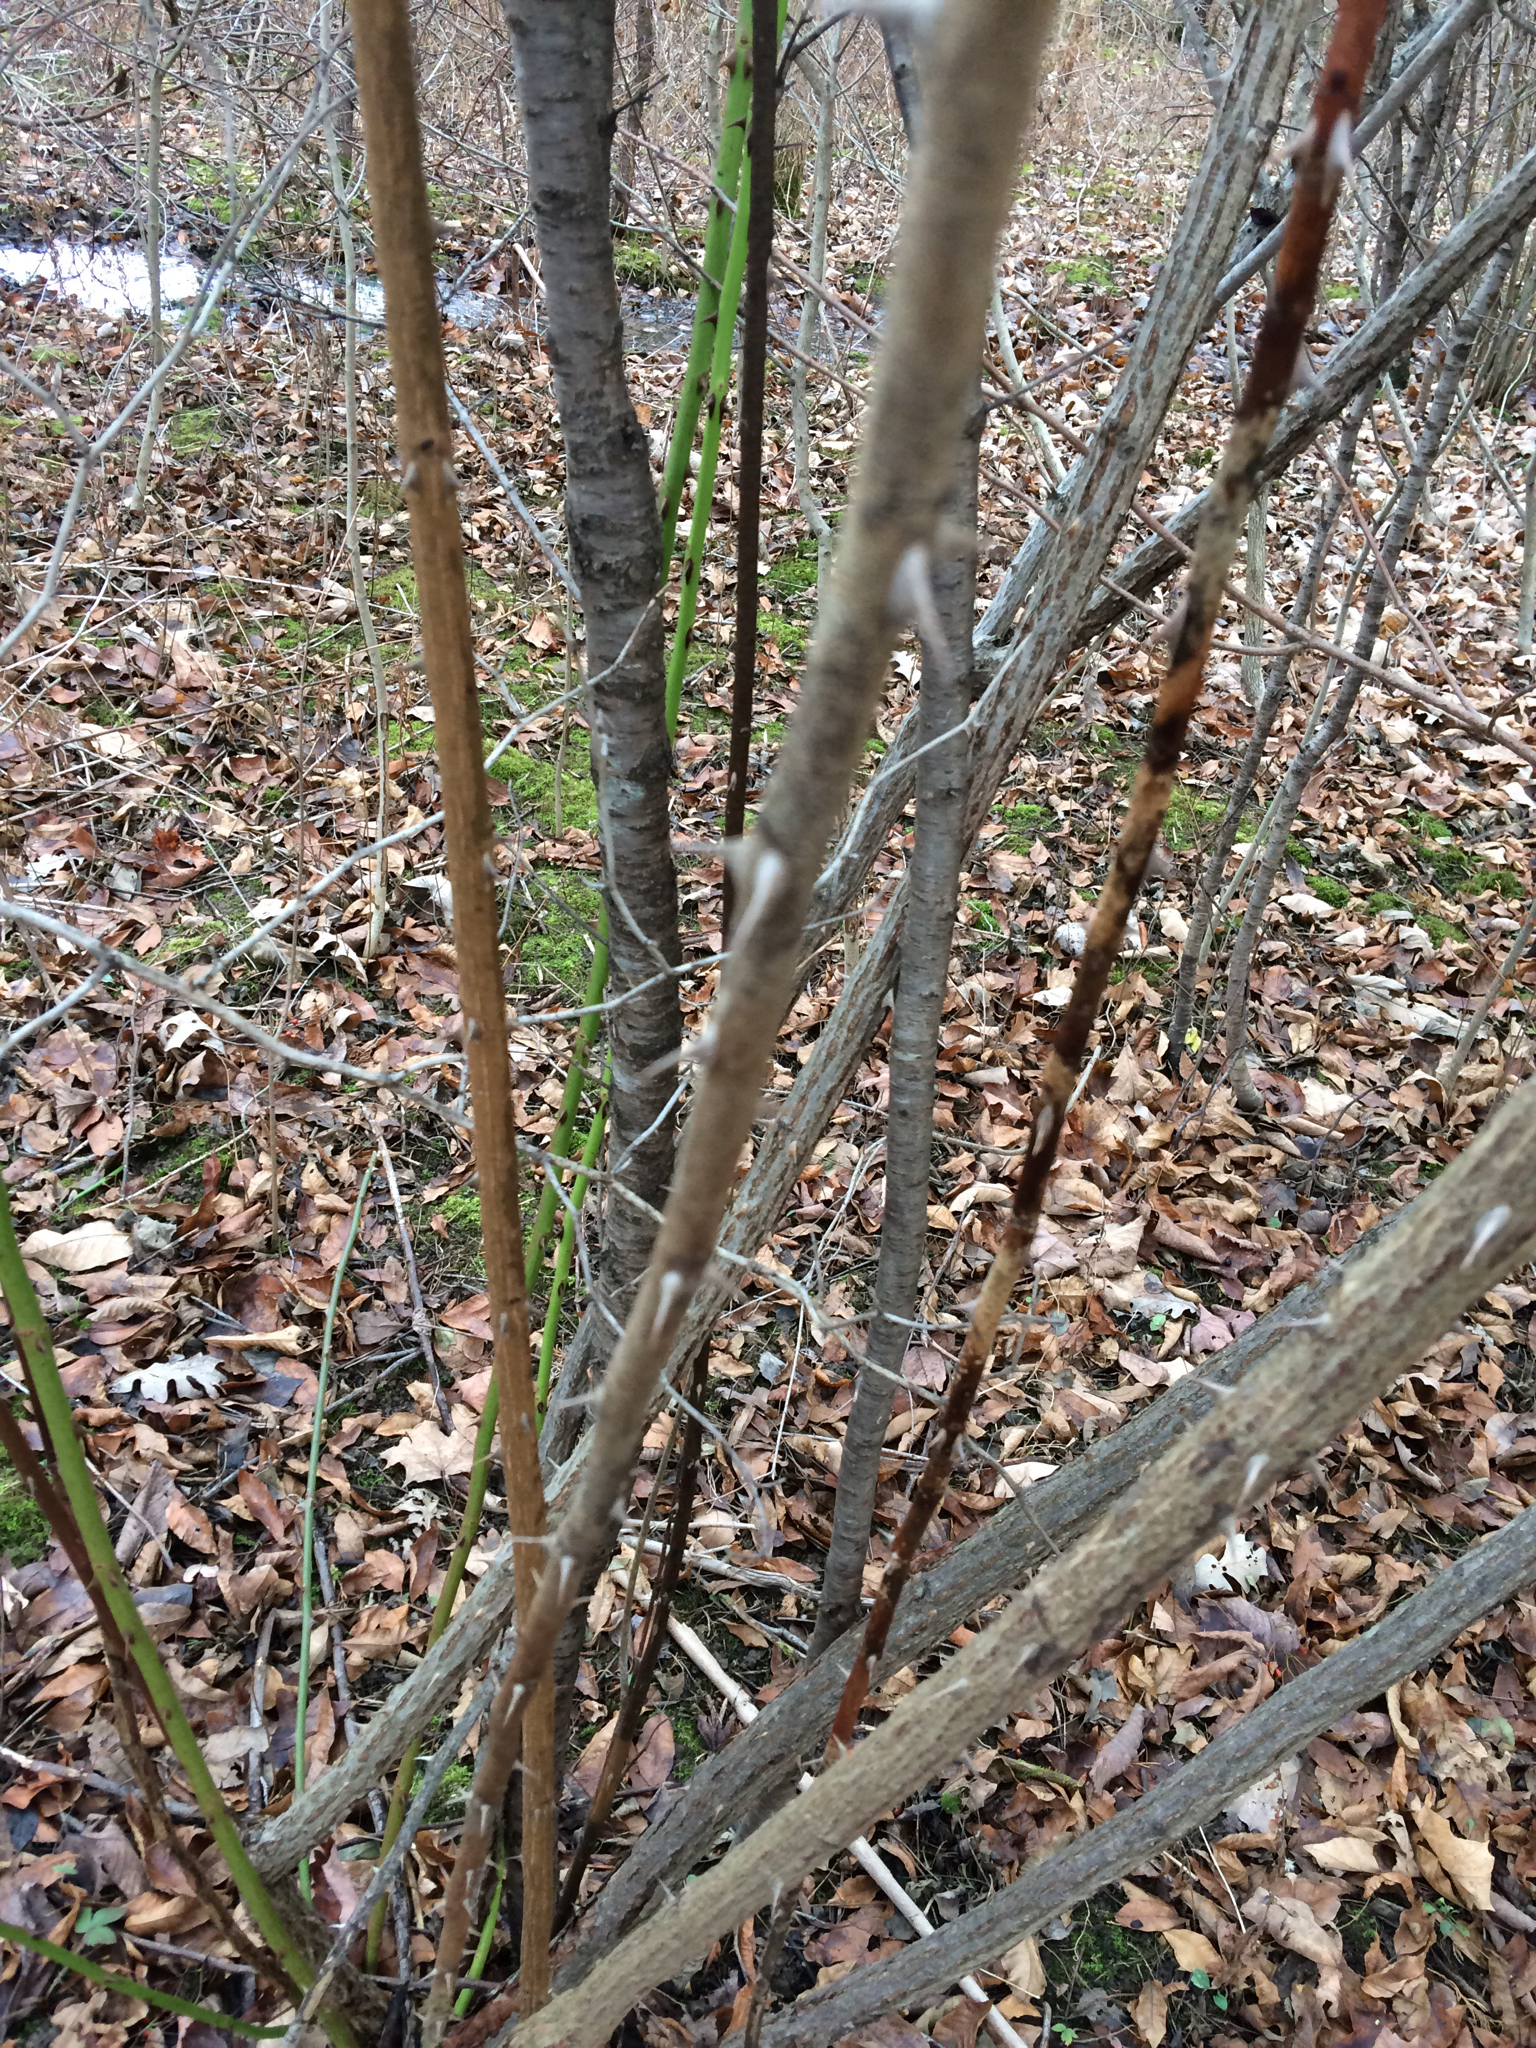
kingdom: Plantae
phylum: Tracheophyta
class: Magnoliopsida
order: Rosales
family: Rosaceae
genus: Rosa
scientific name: Rosa multiflora
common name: Multiflora rose
